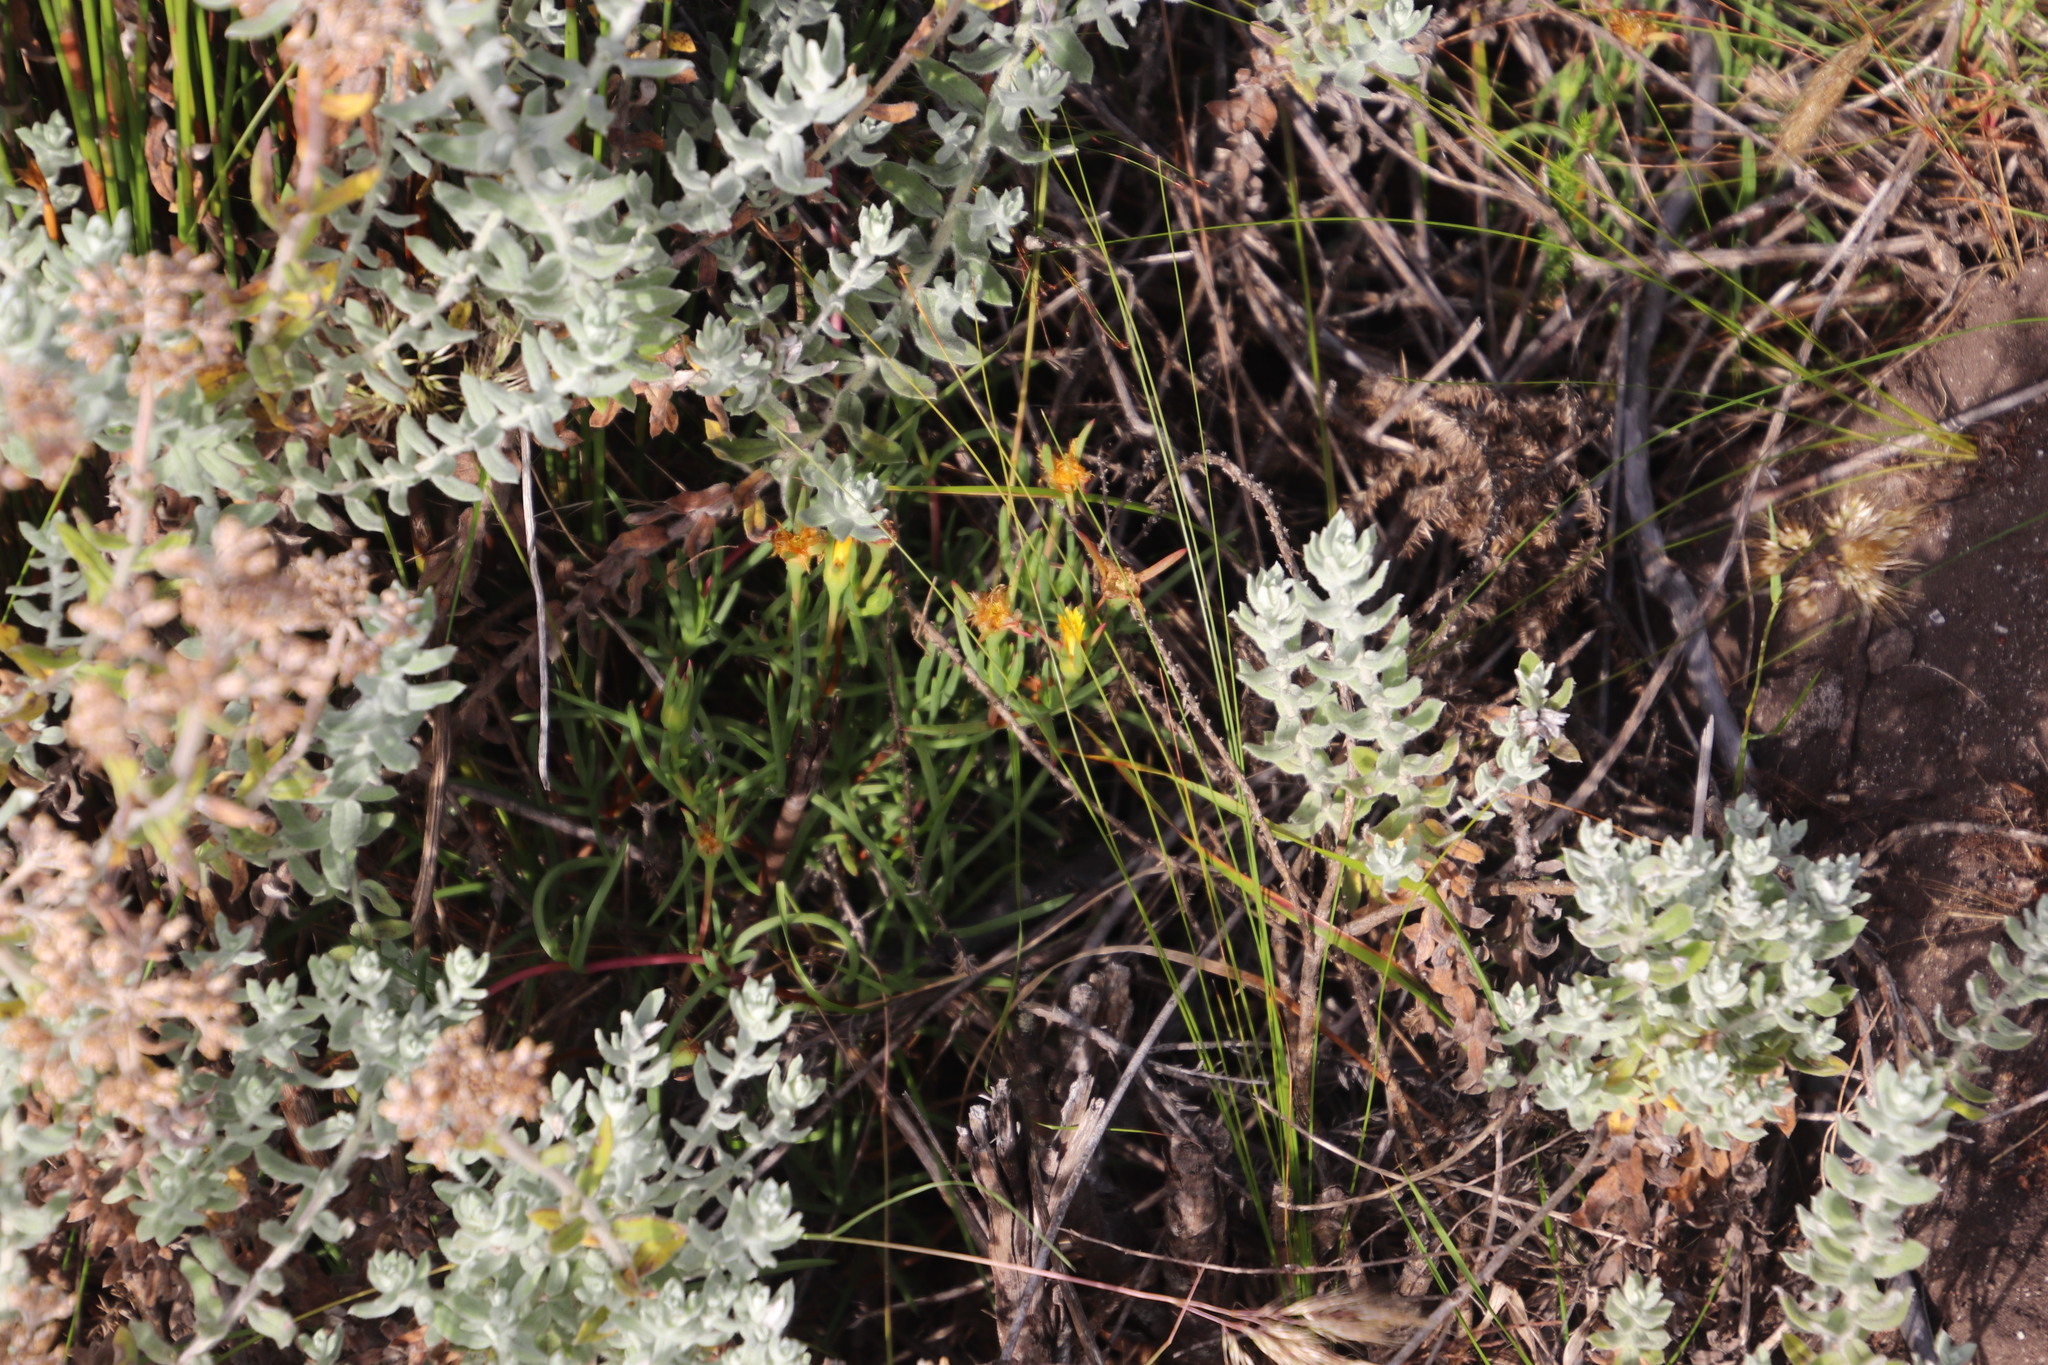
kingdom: Plantae
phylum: Tracheophyta
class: Magnoliopsida
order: Caryophyllales
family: Aizoaceae
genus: Lampranthus
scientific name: Lampranthus bicolor
